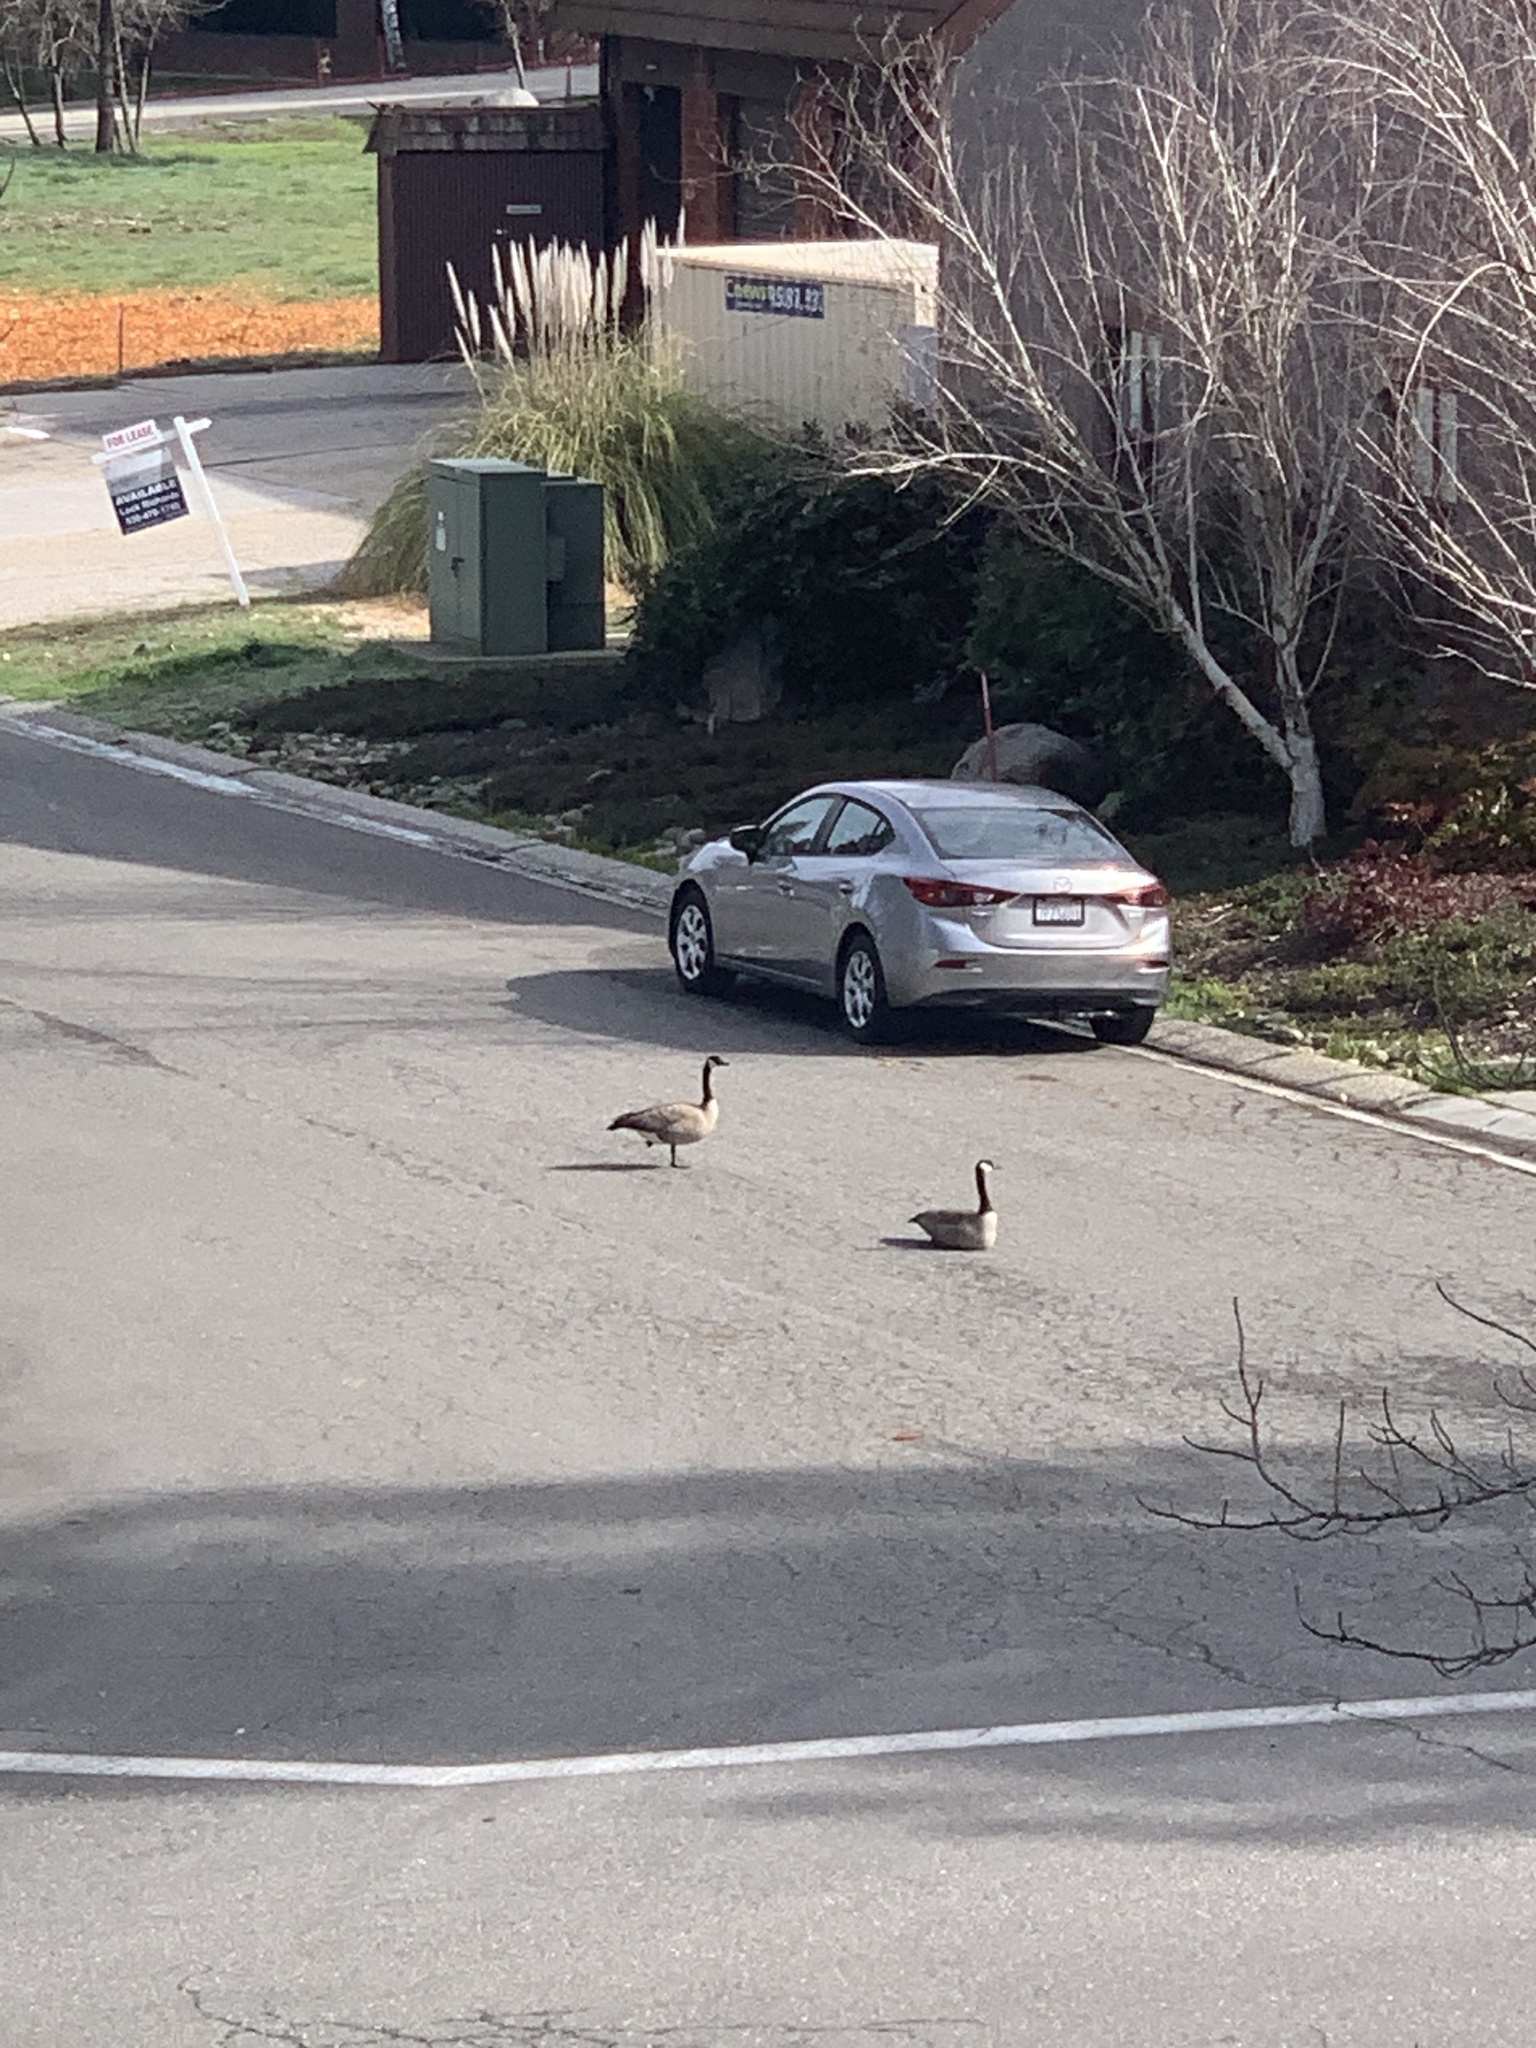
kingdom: Animalia
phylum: Chordata
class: Aves
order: Anseriformes
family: Anatidae
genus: Branta
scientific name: Branta canadensis
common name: Canada goose
